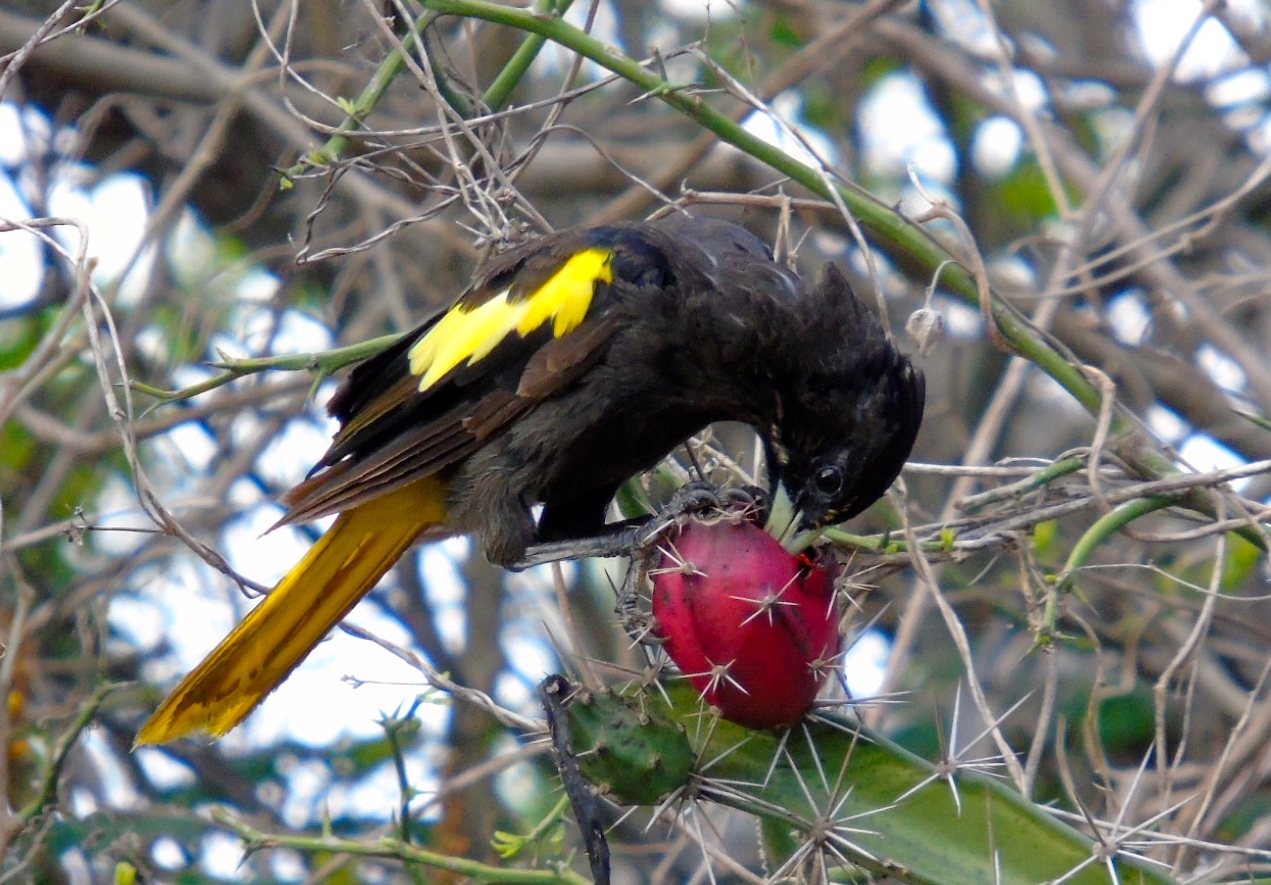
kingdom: Plantae
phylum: Tracheophyta
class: Magnoliopsida
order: Caryophyllales
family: Cactaceae
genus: Acanthocereus
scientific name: Acanthocereus tetragonus
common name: Triangle cactus
